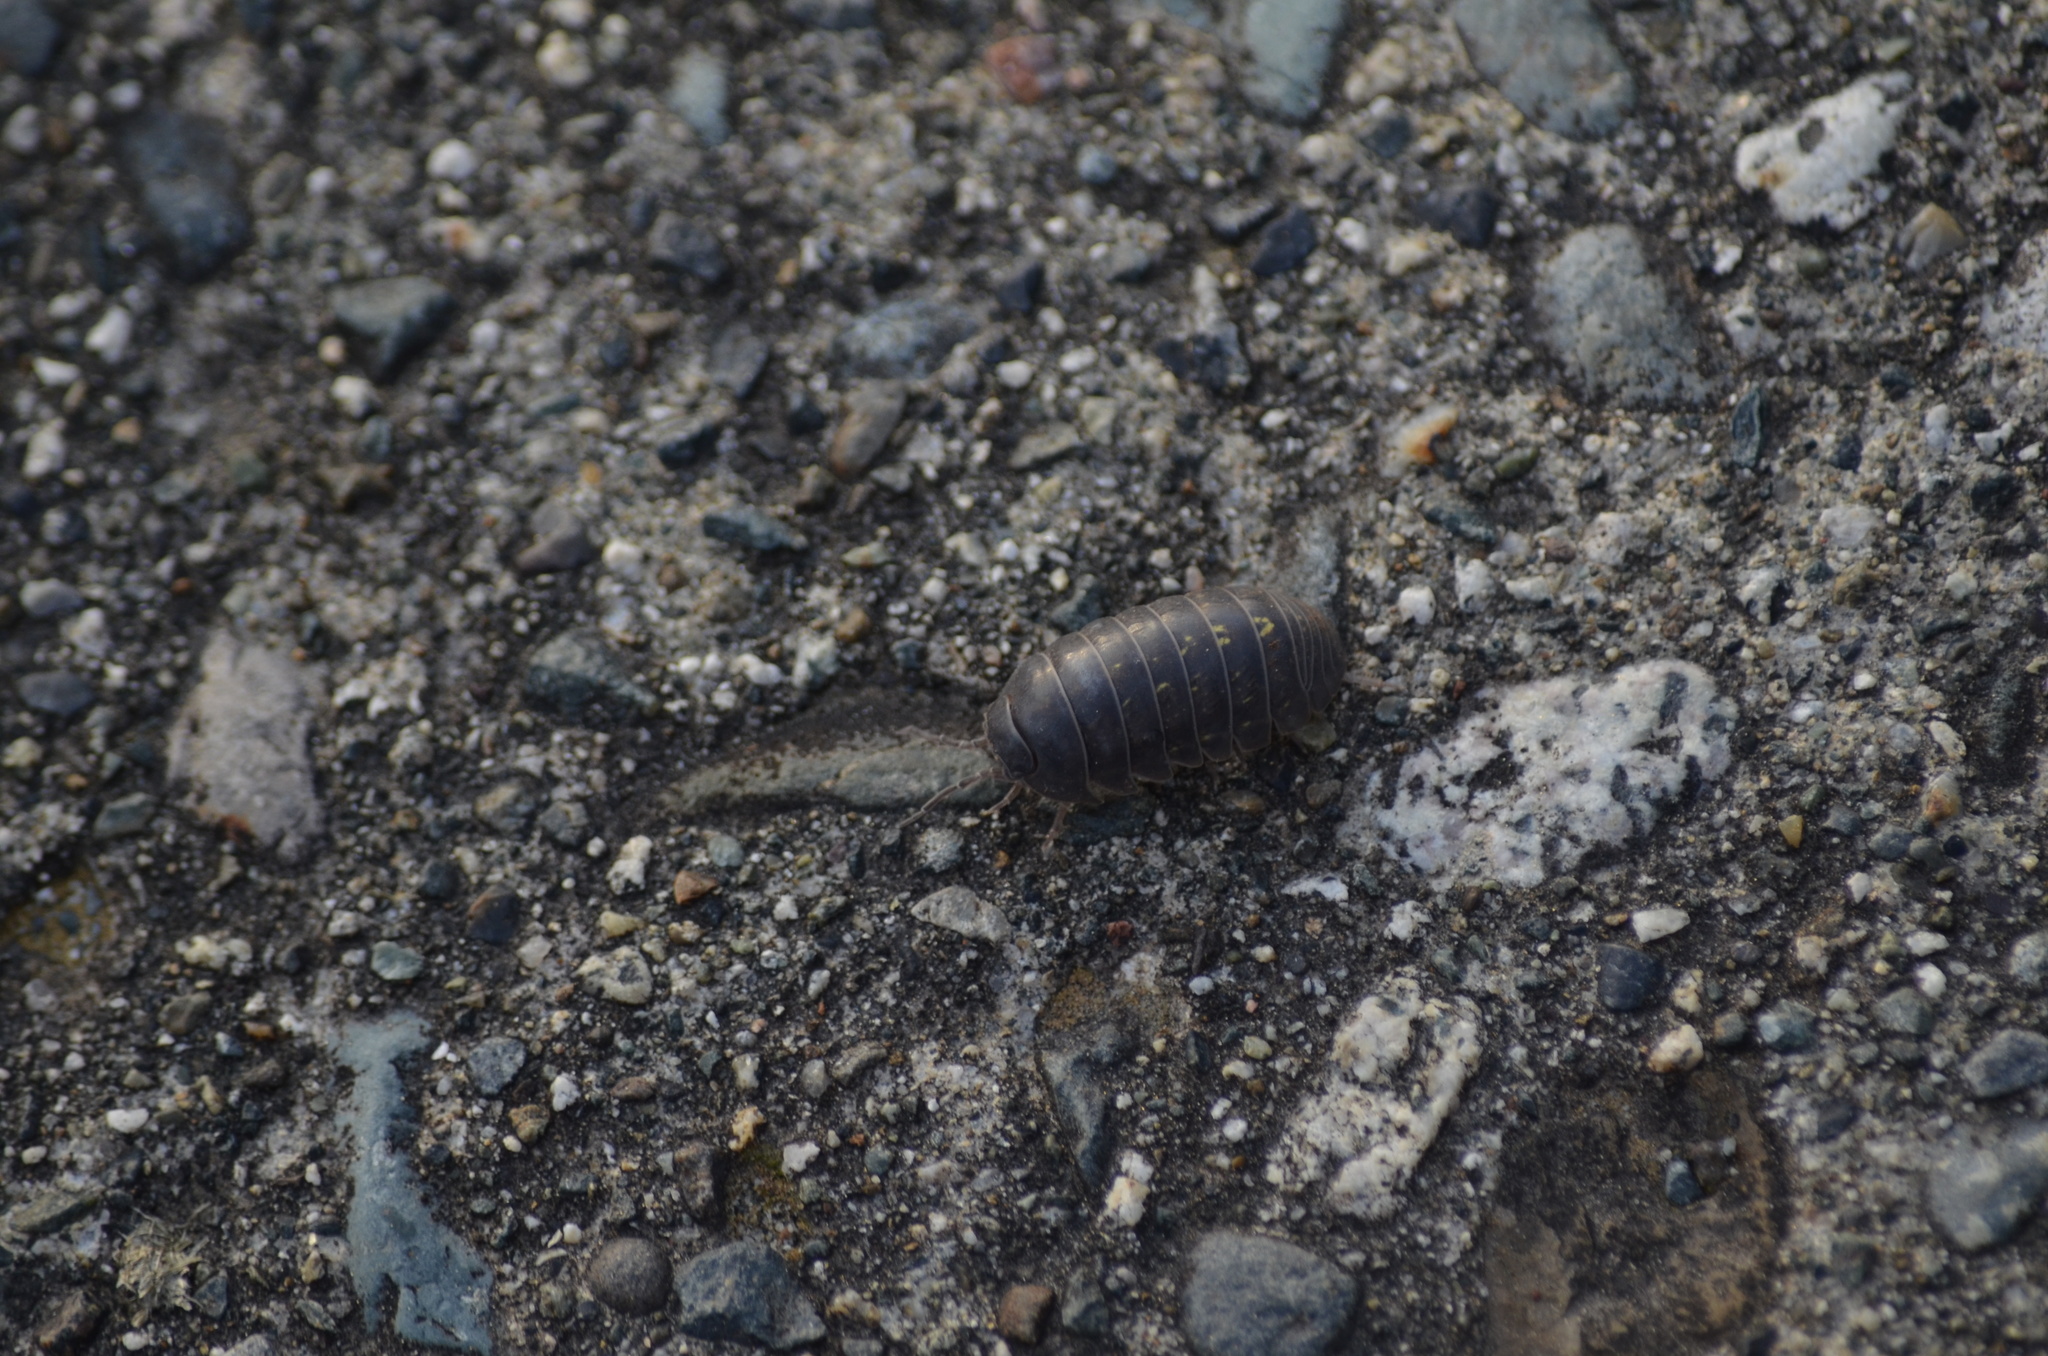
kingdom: Animalia
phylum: Arthropoda
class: Malacostraca
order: Isopoda
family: Armadillidiidae
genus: Armadillidium
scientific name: Armadillidium vulgare
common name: Common pill woodlouse
